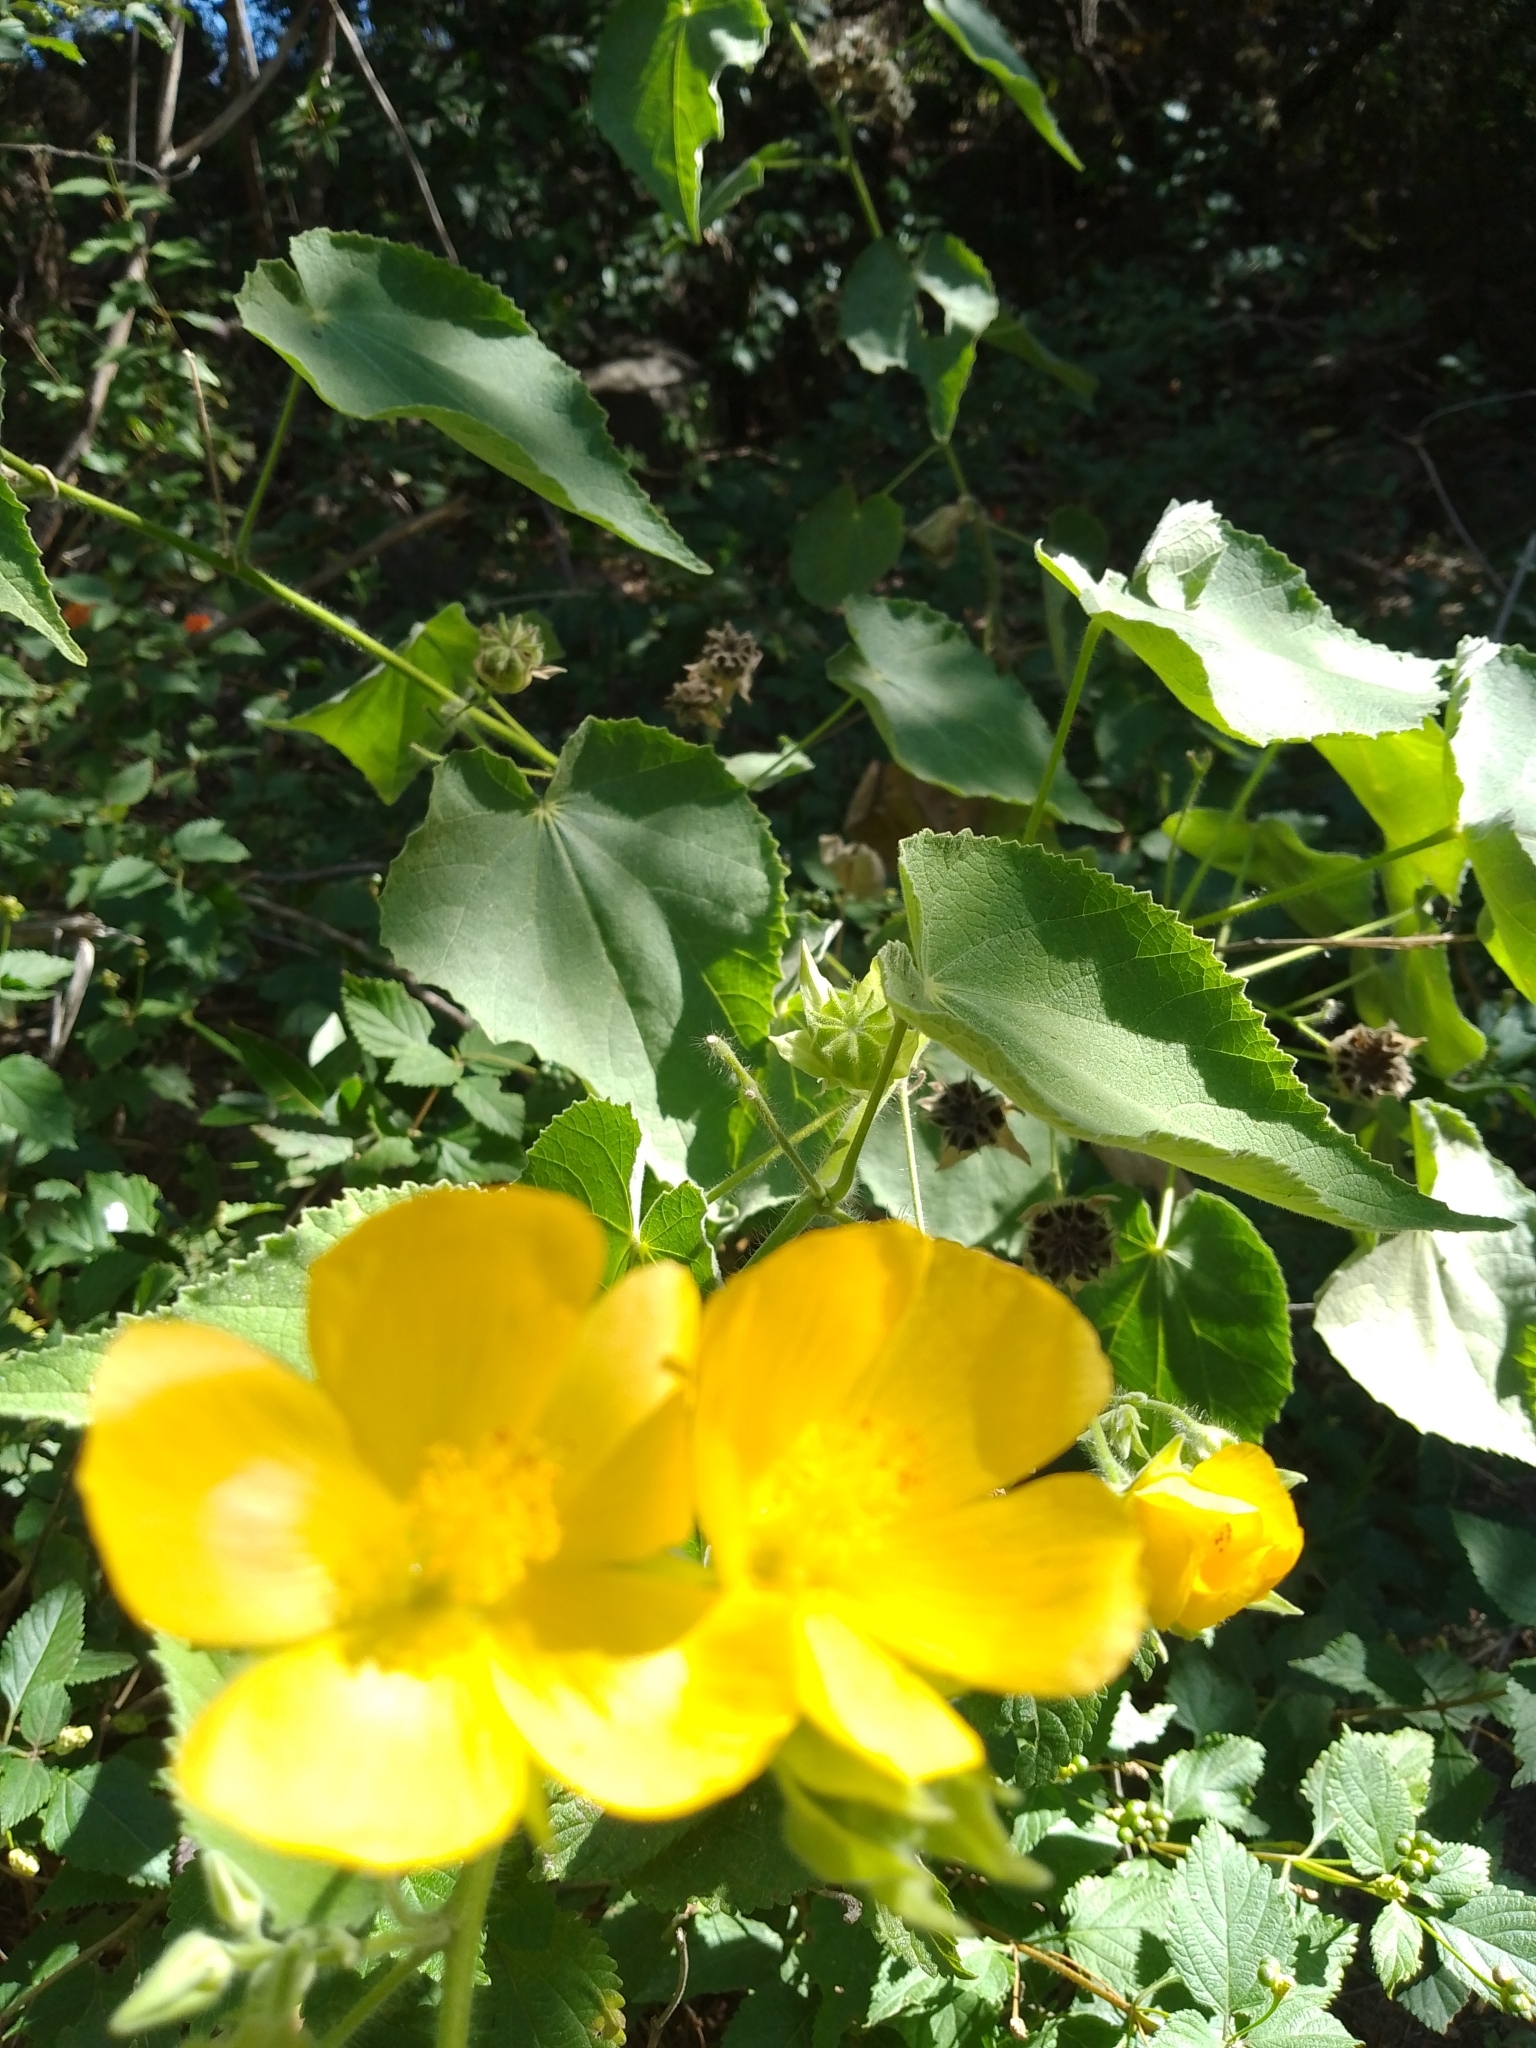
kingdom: Plantae
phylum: Tracheophyta
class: Magnoliopsida
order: Malvales
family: Malvaceae
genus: Abutilon
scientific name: Abutilon grandifolium
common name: Hairy abutilon
